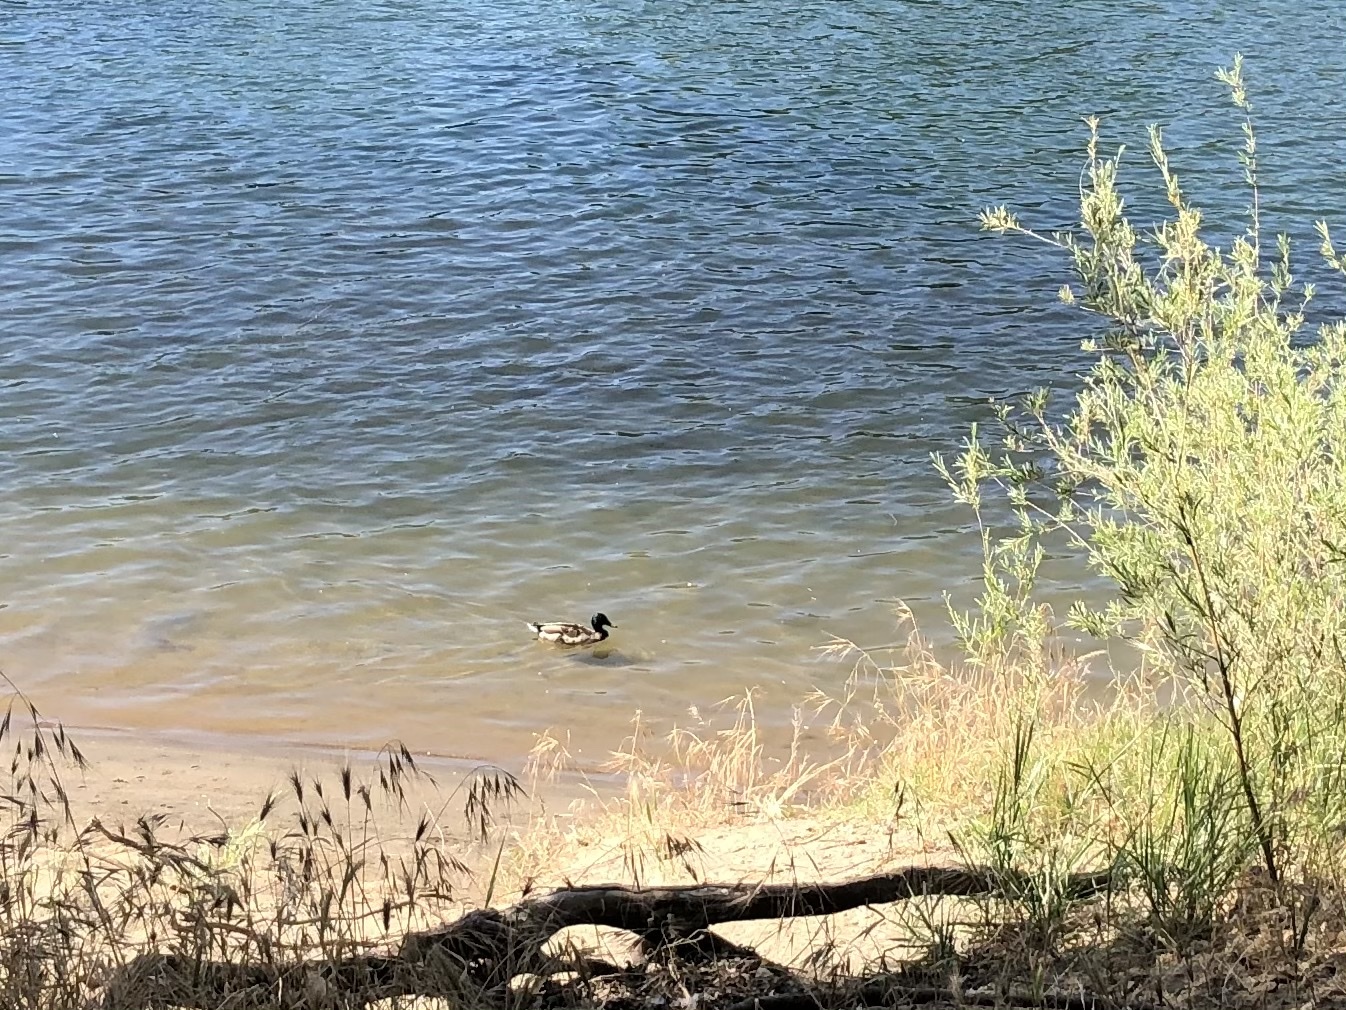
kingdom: Animalia
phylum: Chordata
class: Aves
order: Anseriformes
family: Anatidae
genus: Anas
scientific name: Anas platyrhynchos
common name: Mallard
